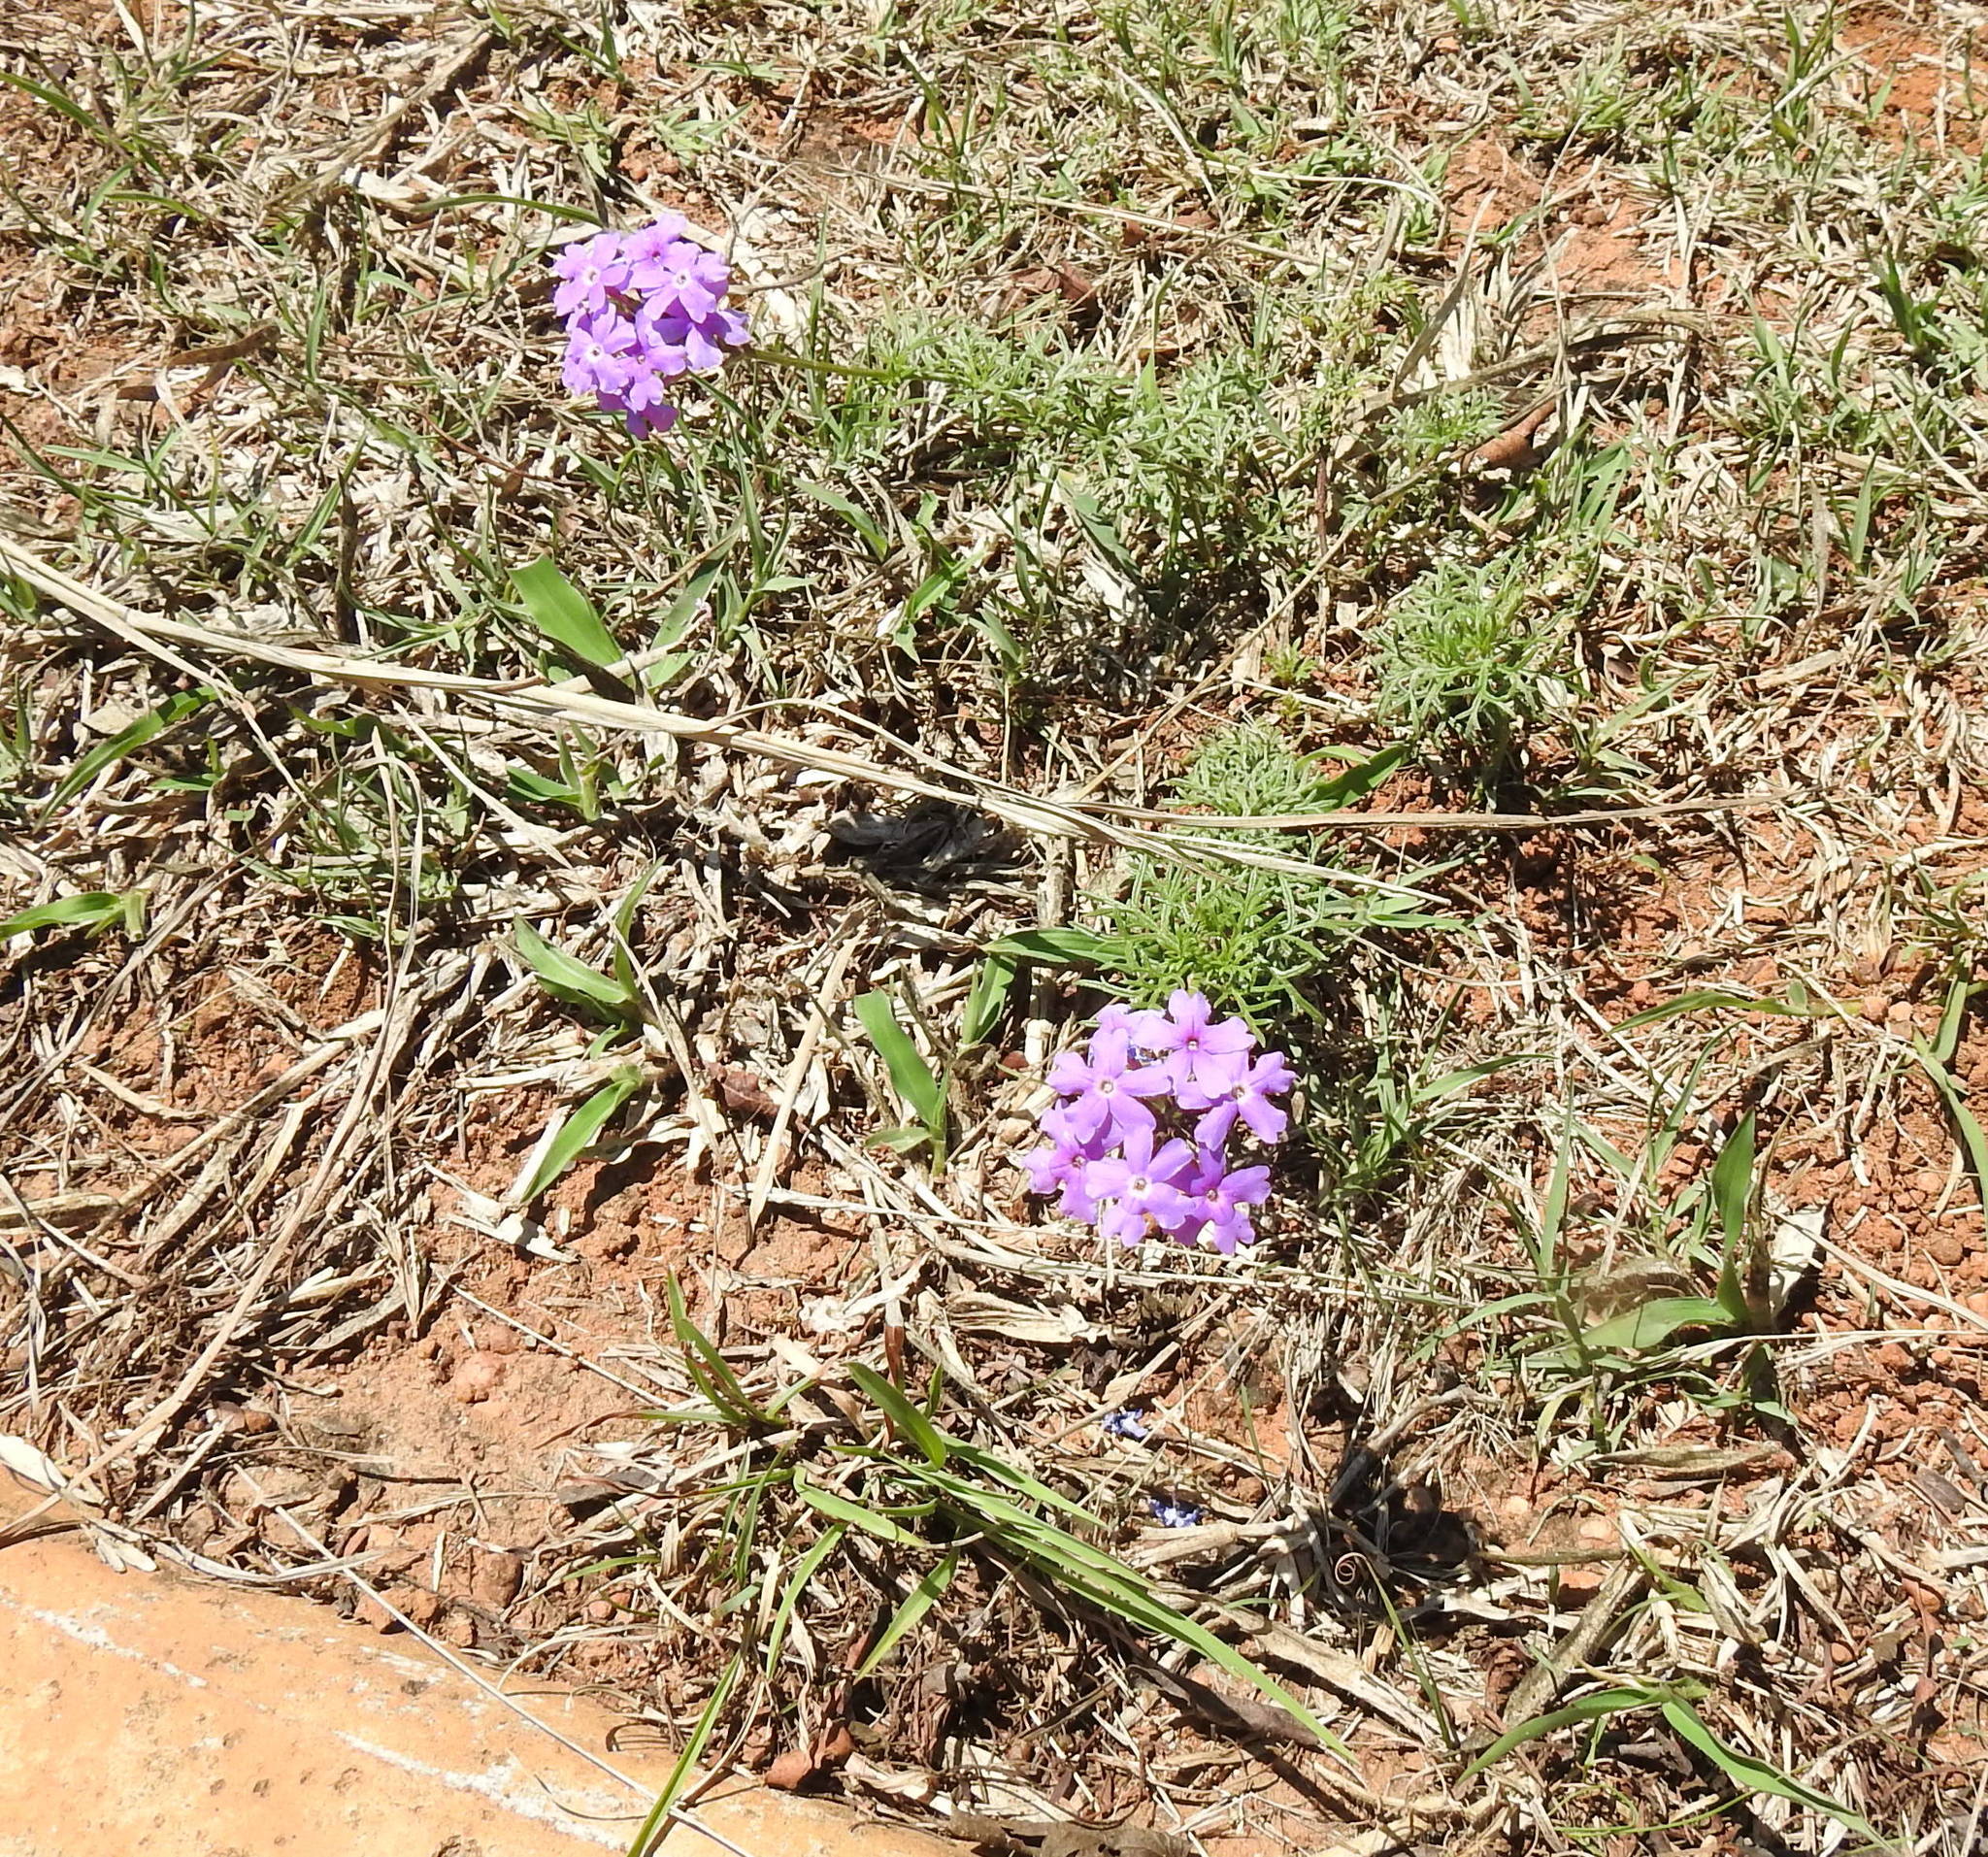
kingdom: Plantae
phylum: Tracheophyta
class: Magnoliopsida
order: Lamiales
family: Verbenaceae
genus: Verbena
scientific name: Verbena aristigera
